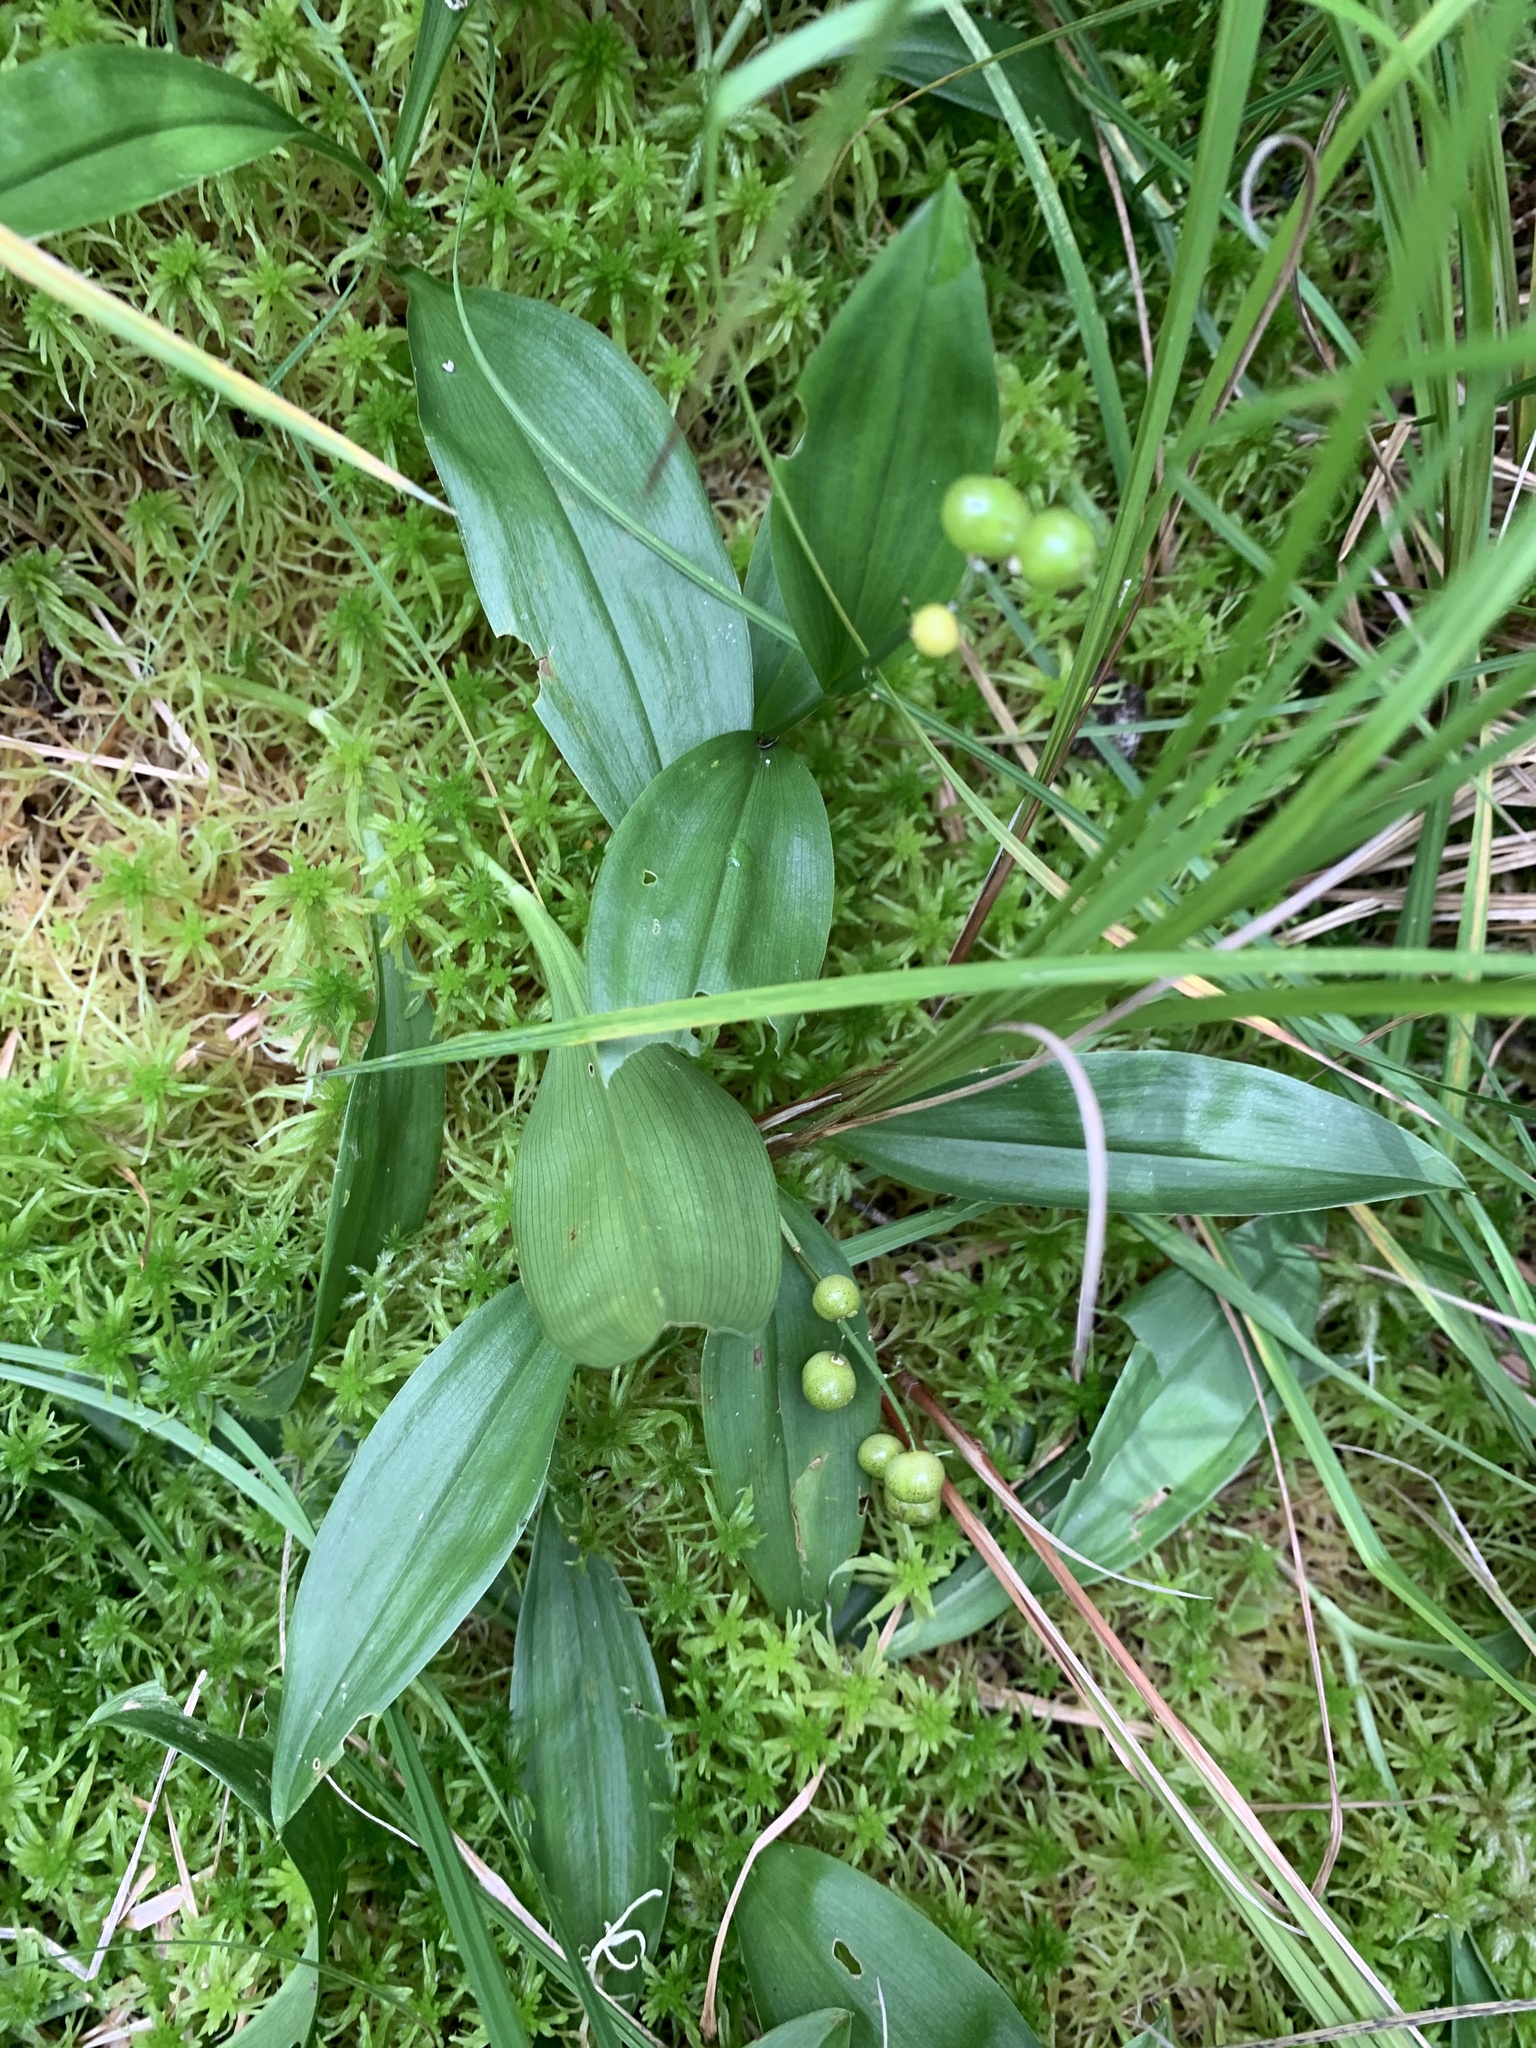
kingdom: Plantae
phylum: Tracheophyta
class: Liliopsida
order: Asparagales
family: Asparagaceae
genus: Maianthemum
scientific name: Maianthemum trifolium
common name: Swamp false solomon's seal
